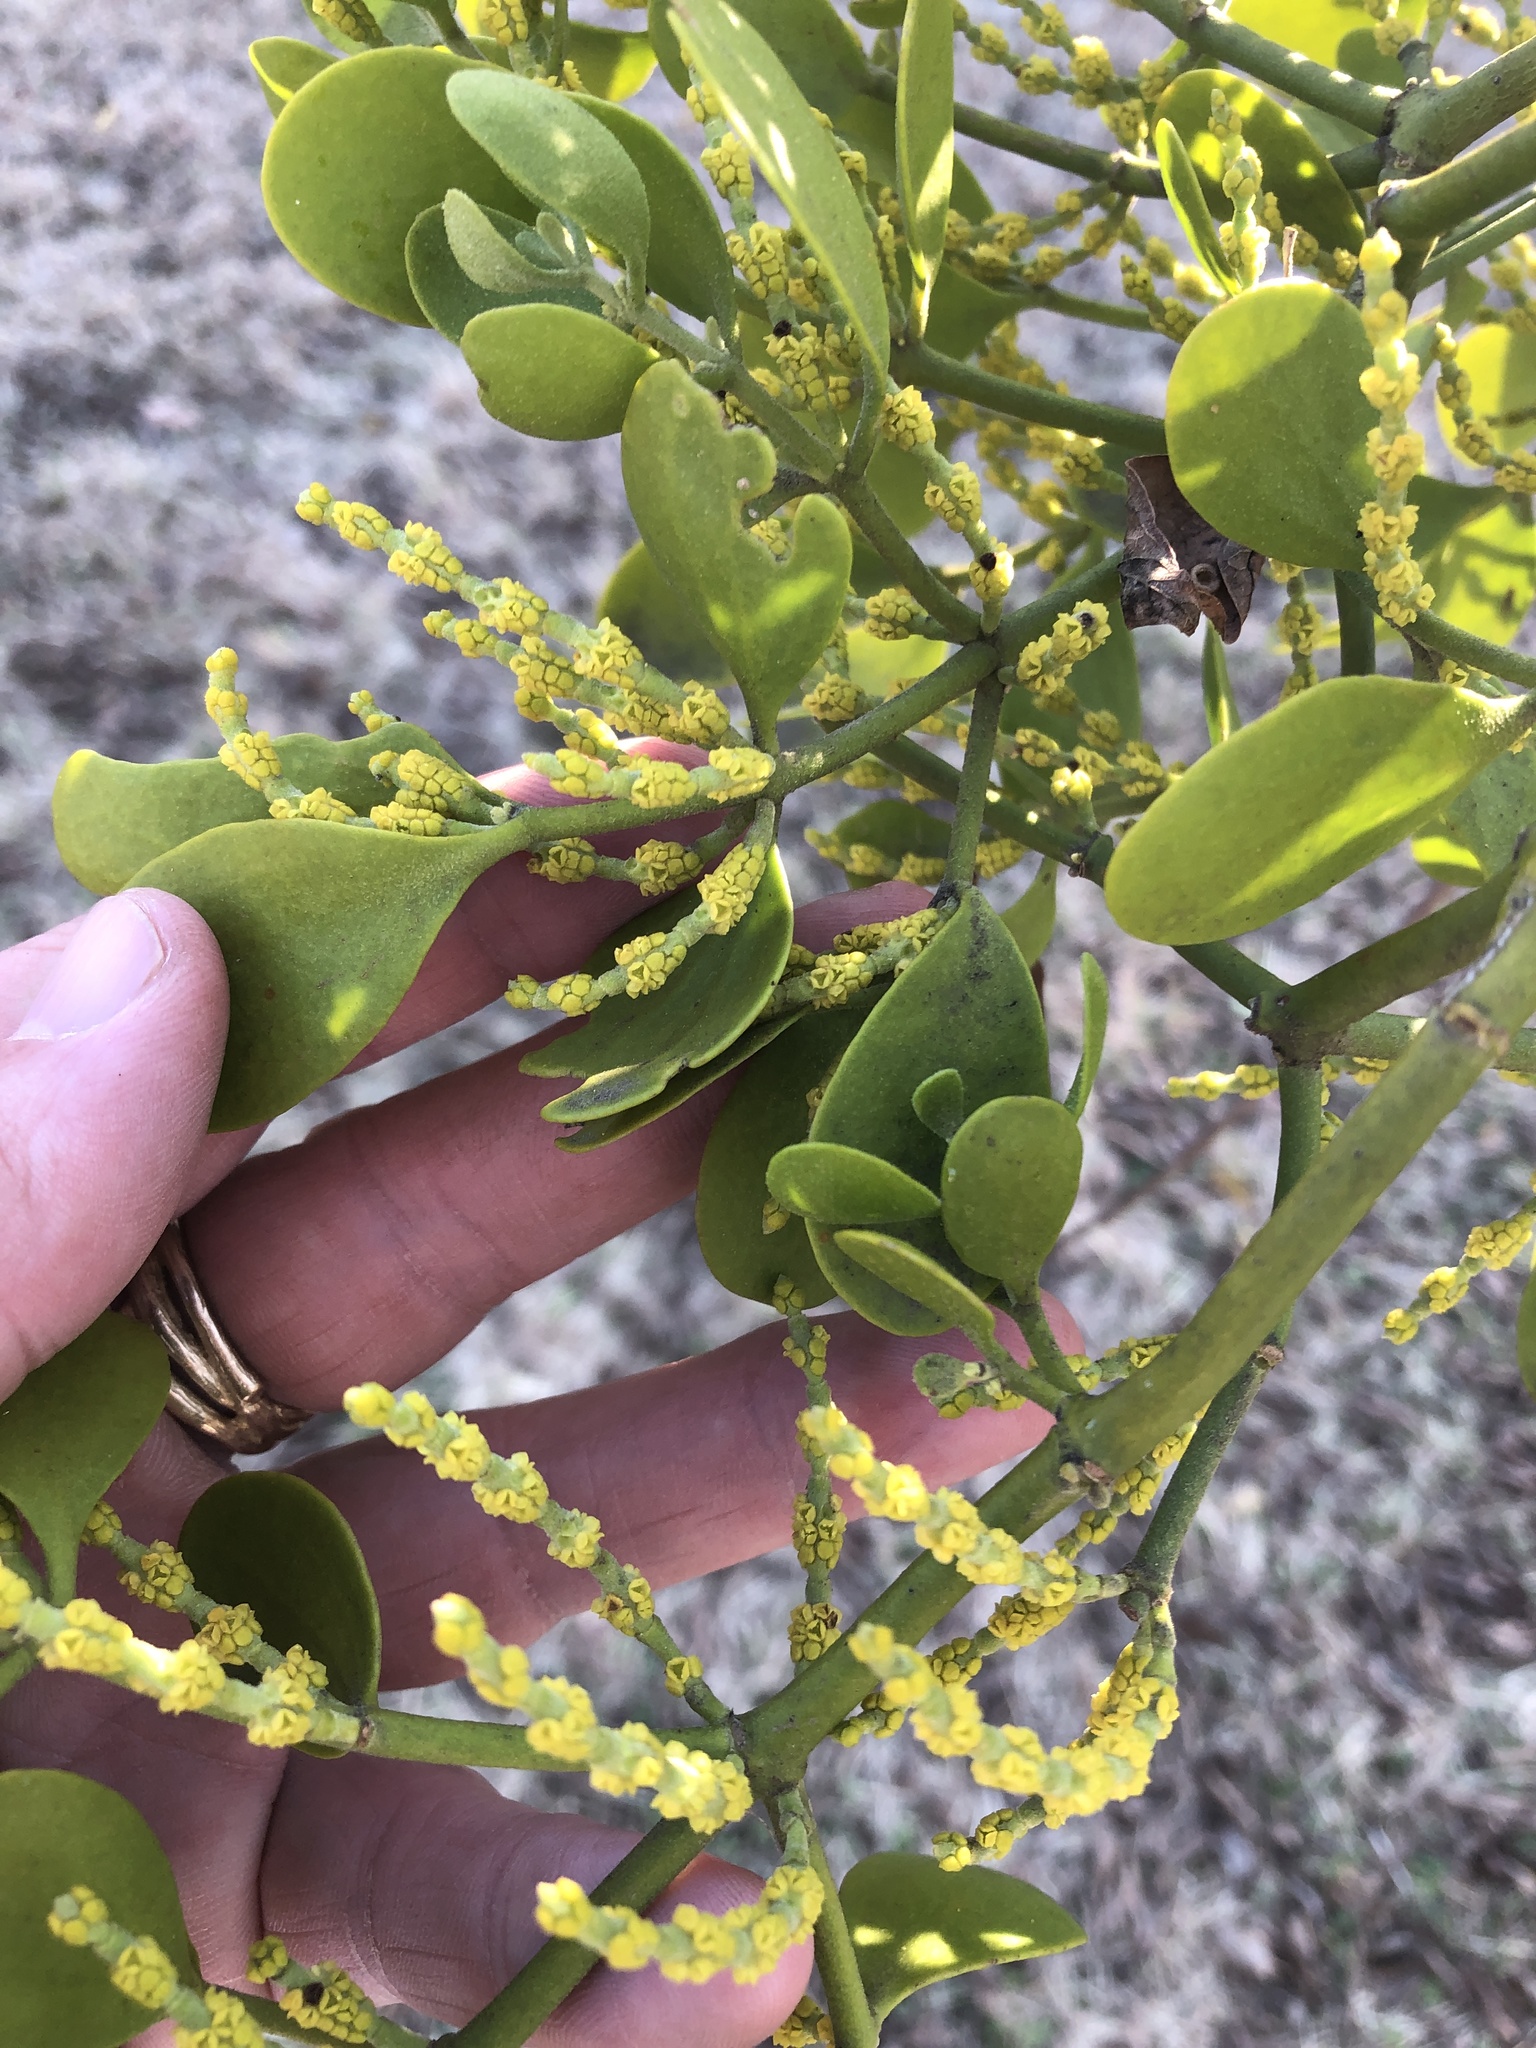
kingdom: Plantae
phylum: Tracheophyta
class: Magnoliopsida
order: Santalales
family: Viscaceae
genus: Phoradendron
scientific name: Phoradendron leucarpum
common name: Pacific mistletoe
